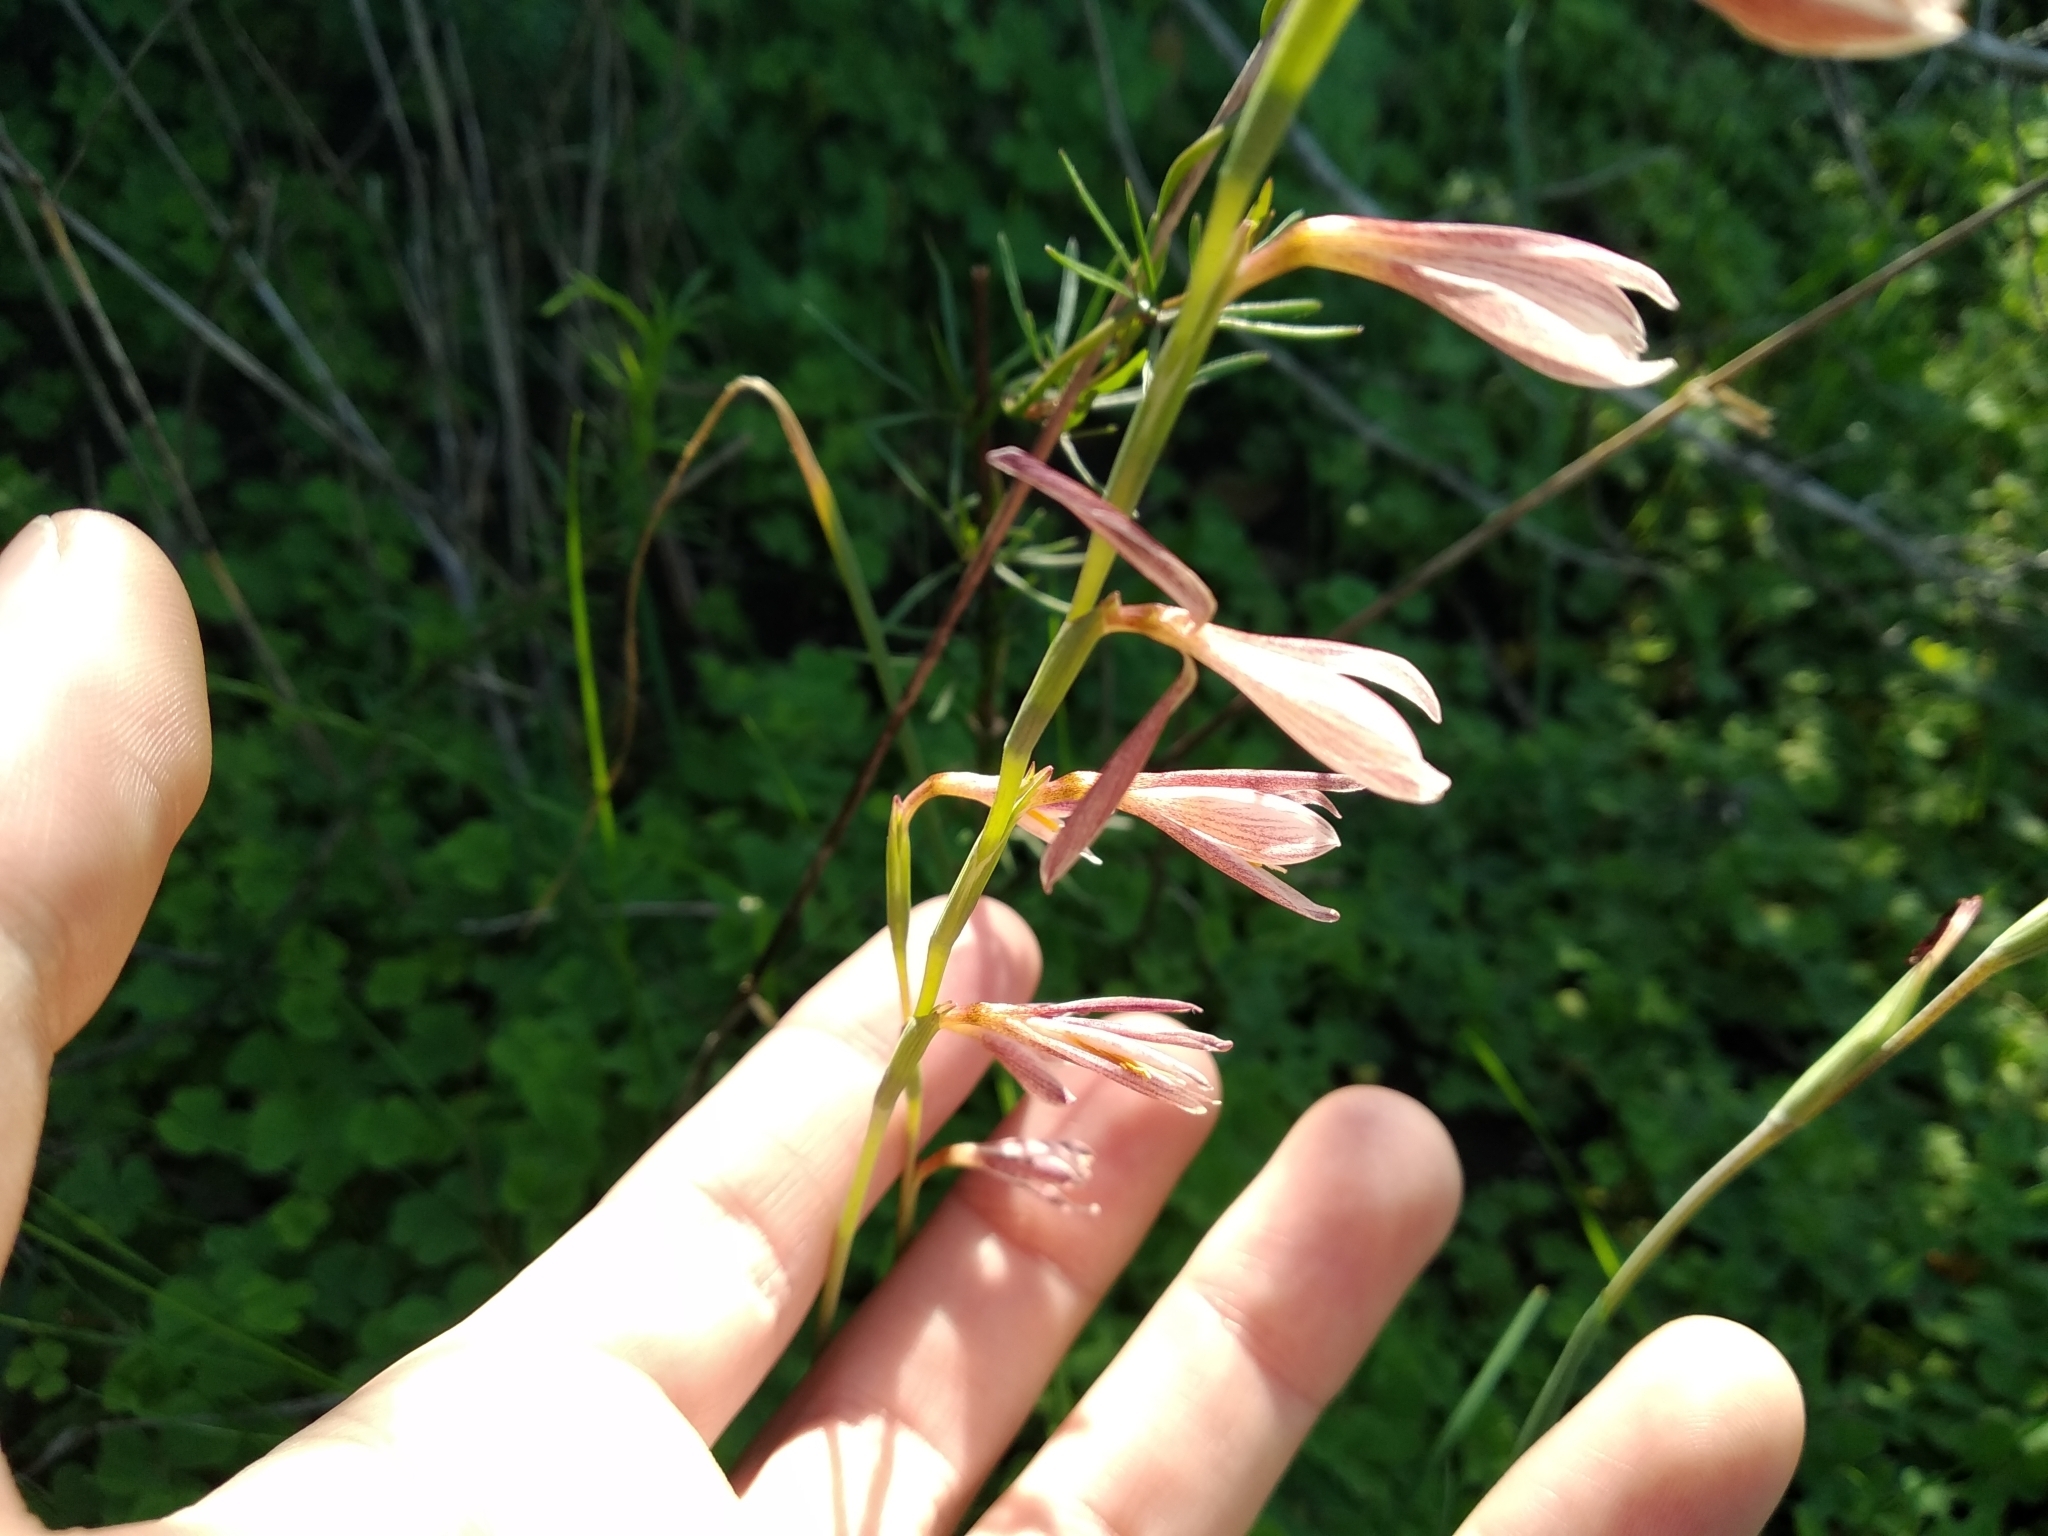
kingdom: Plantae
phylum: Tracheophyta
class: Liliopsida
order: Asparagales
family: Iridaceae
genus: Hesperantha
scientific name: Hesperantha radiata
